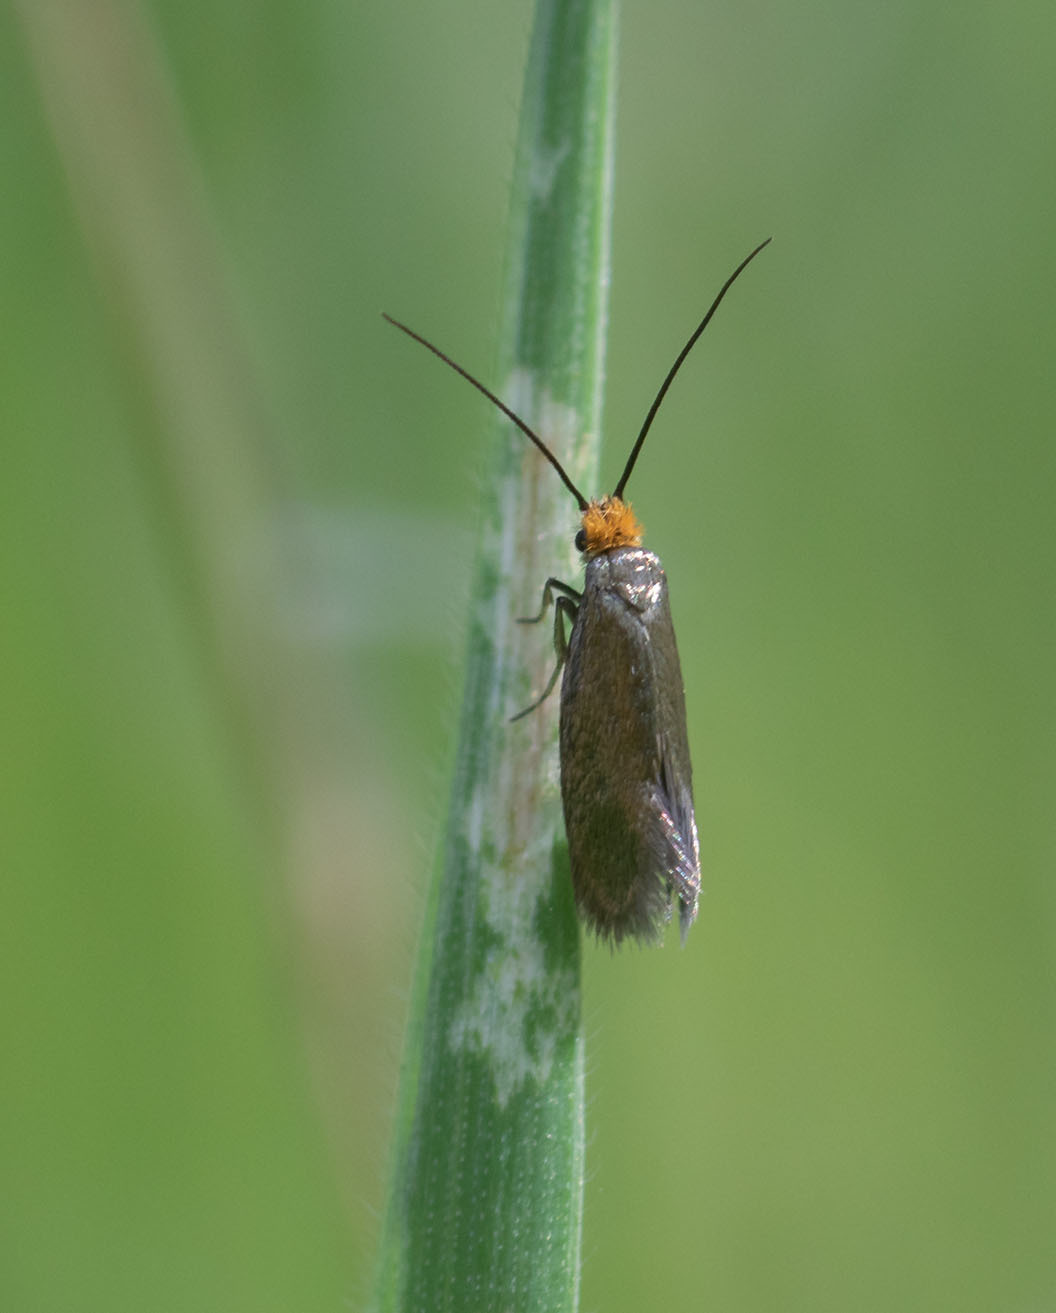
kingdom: Animalia
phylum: Arthropoda
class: Insecta
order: Lepidoptera
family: Adelidae
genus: Cauchas
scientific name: Cauchas simpliciella
